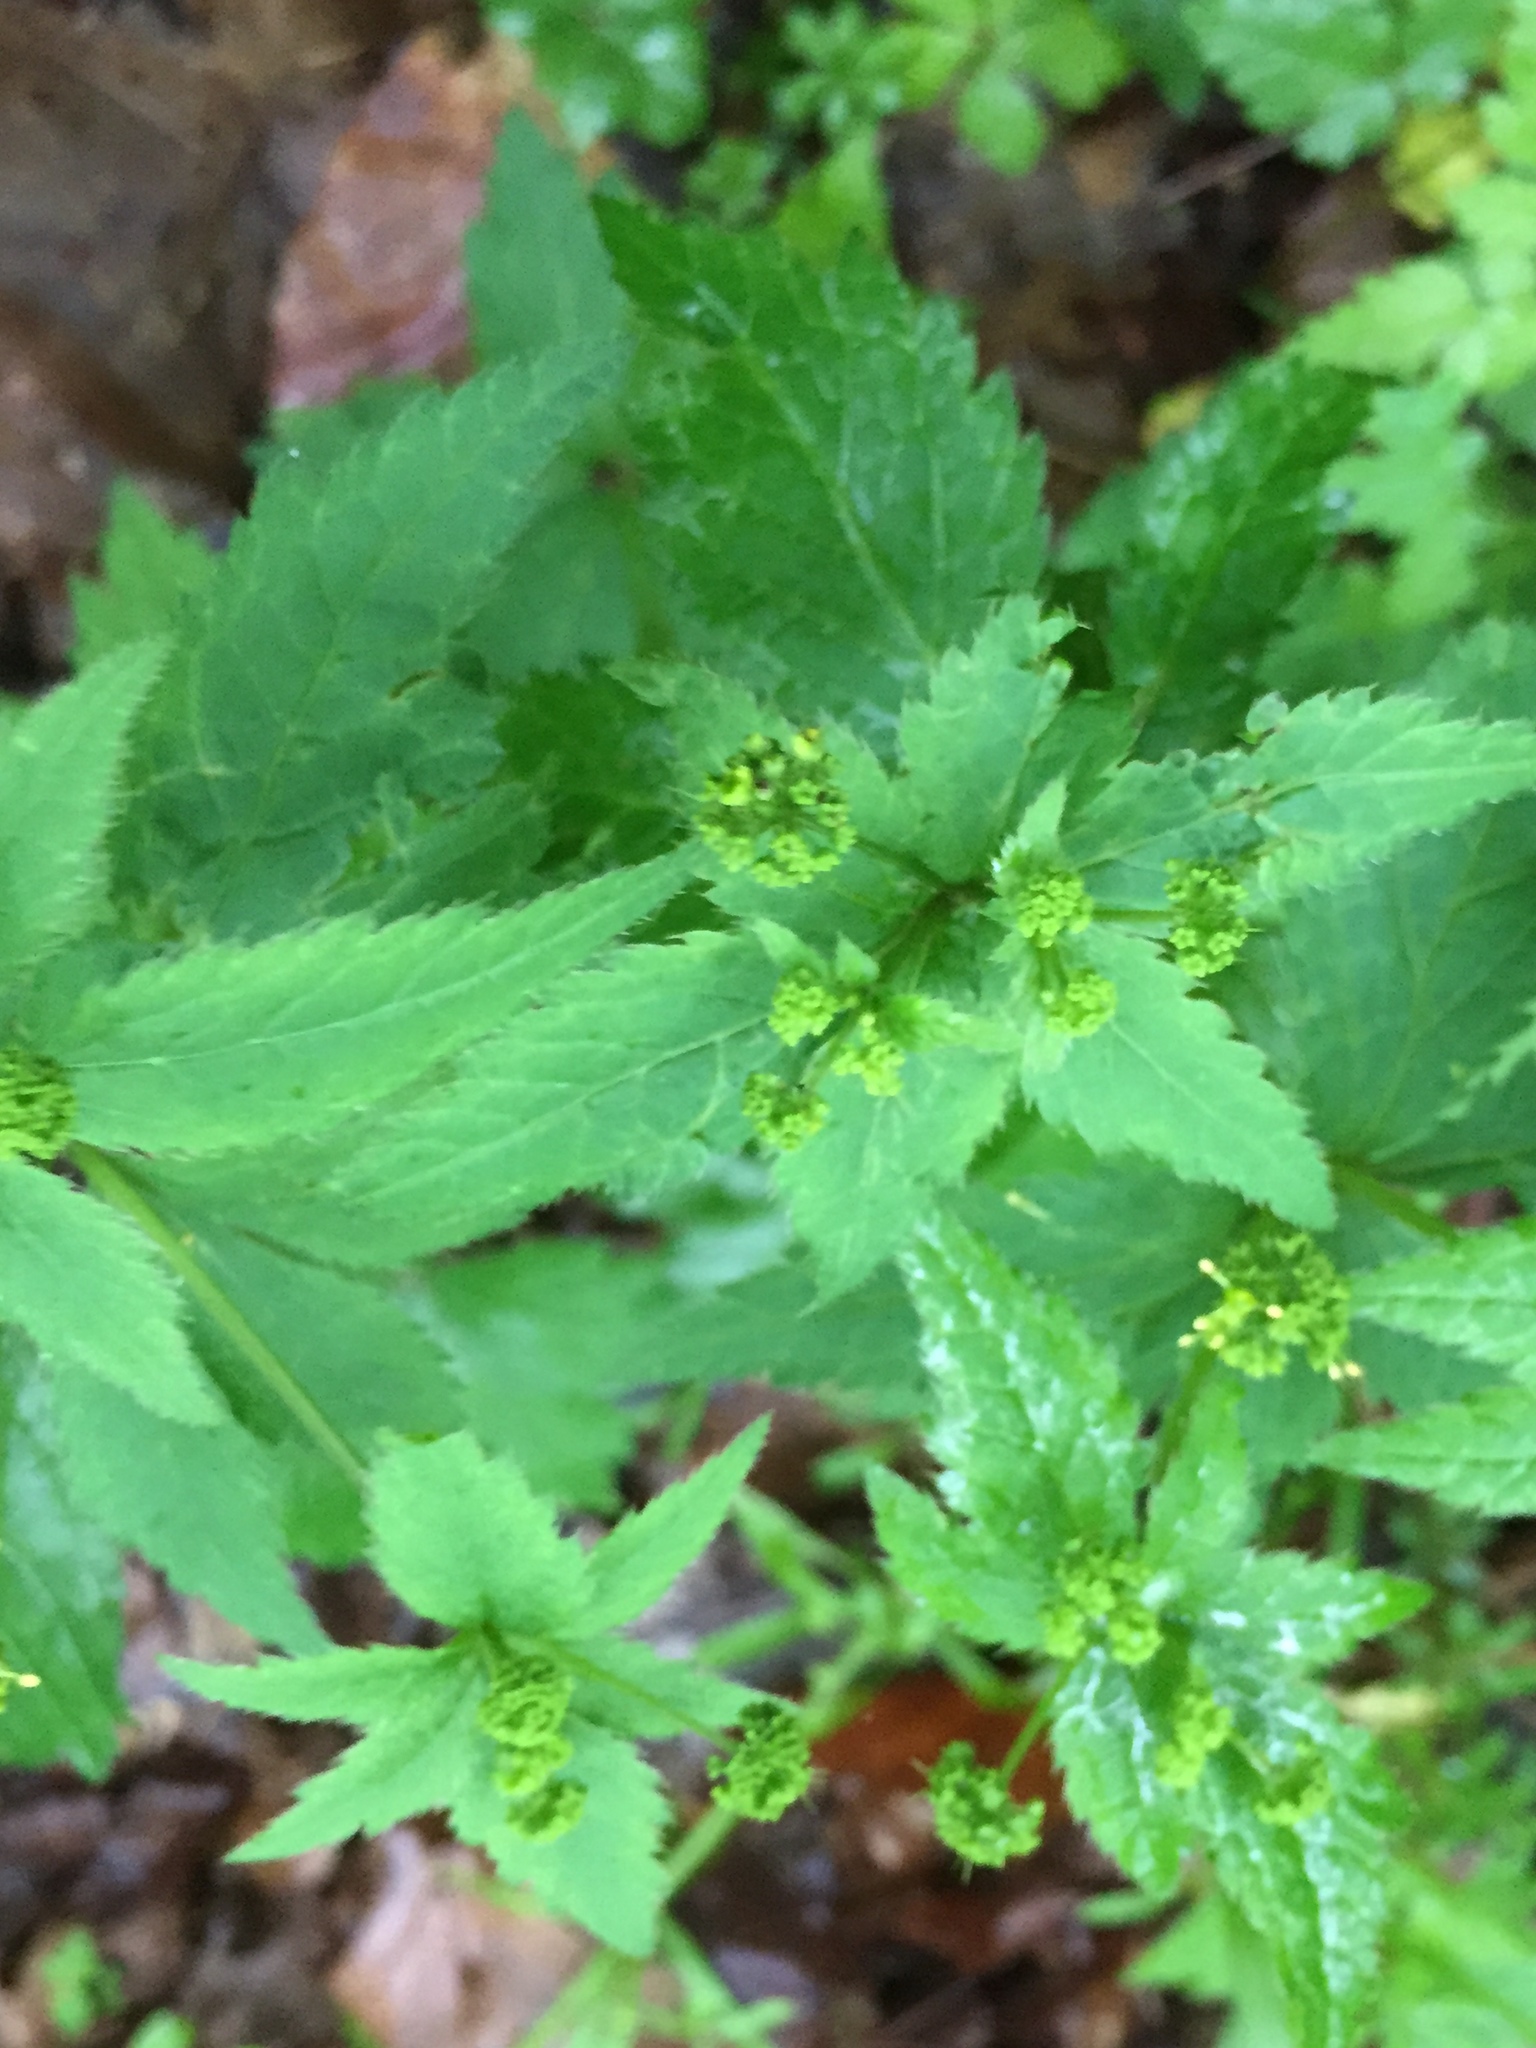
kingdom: Plantae
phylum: Tracheophyta
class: Magnoliopsida
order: Apiales
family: Apiaceae
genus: Sanicula
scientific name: Sanicula odorata
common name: Cluster sanicle
